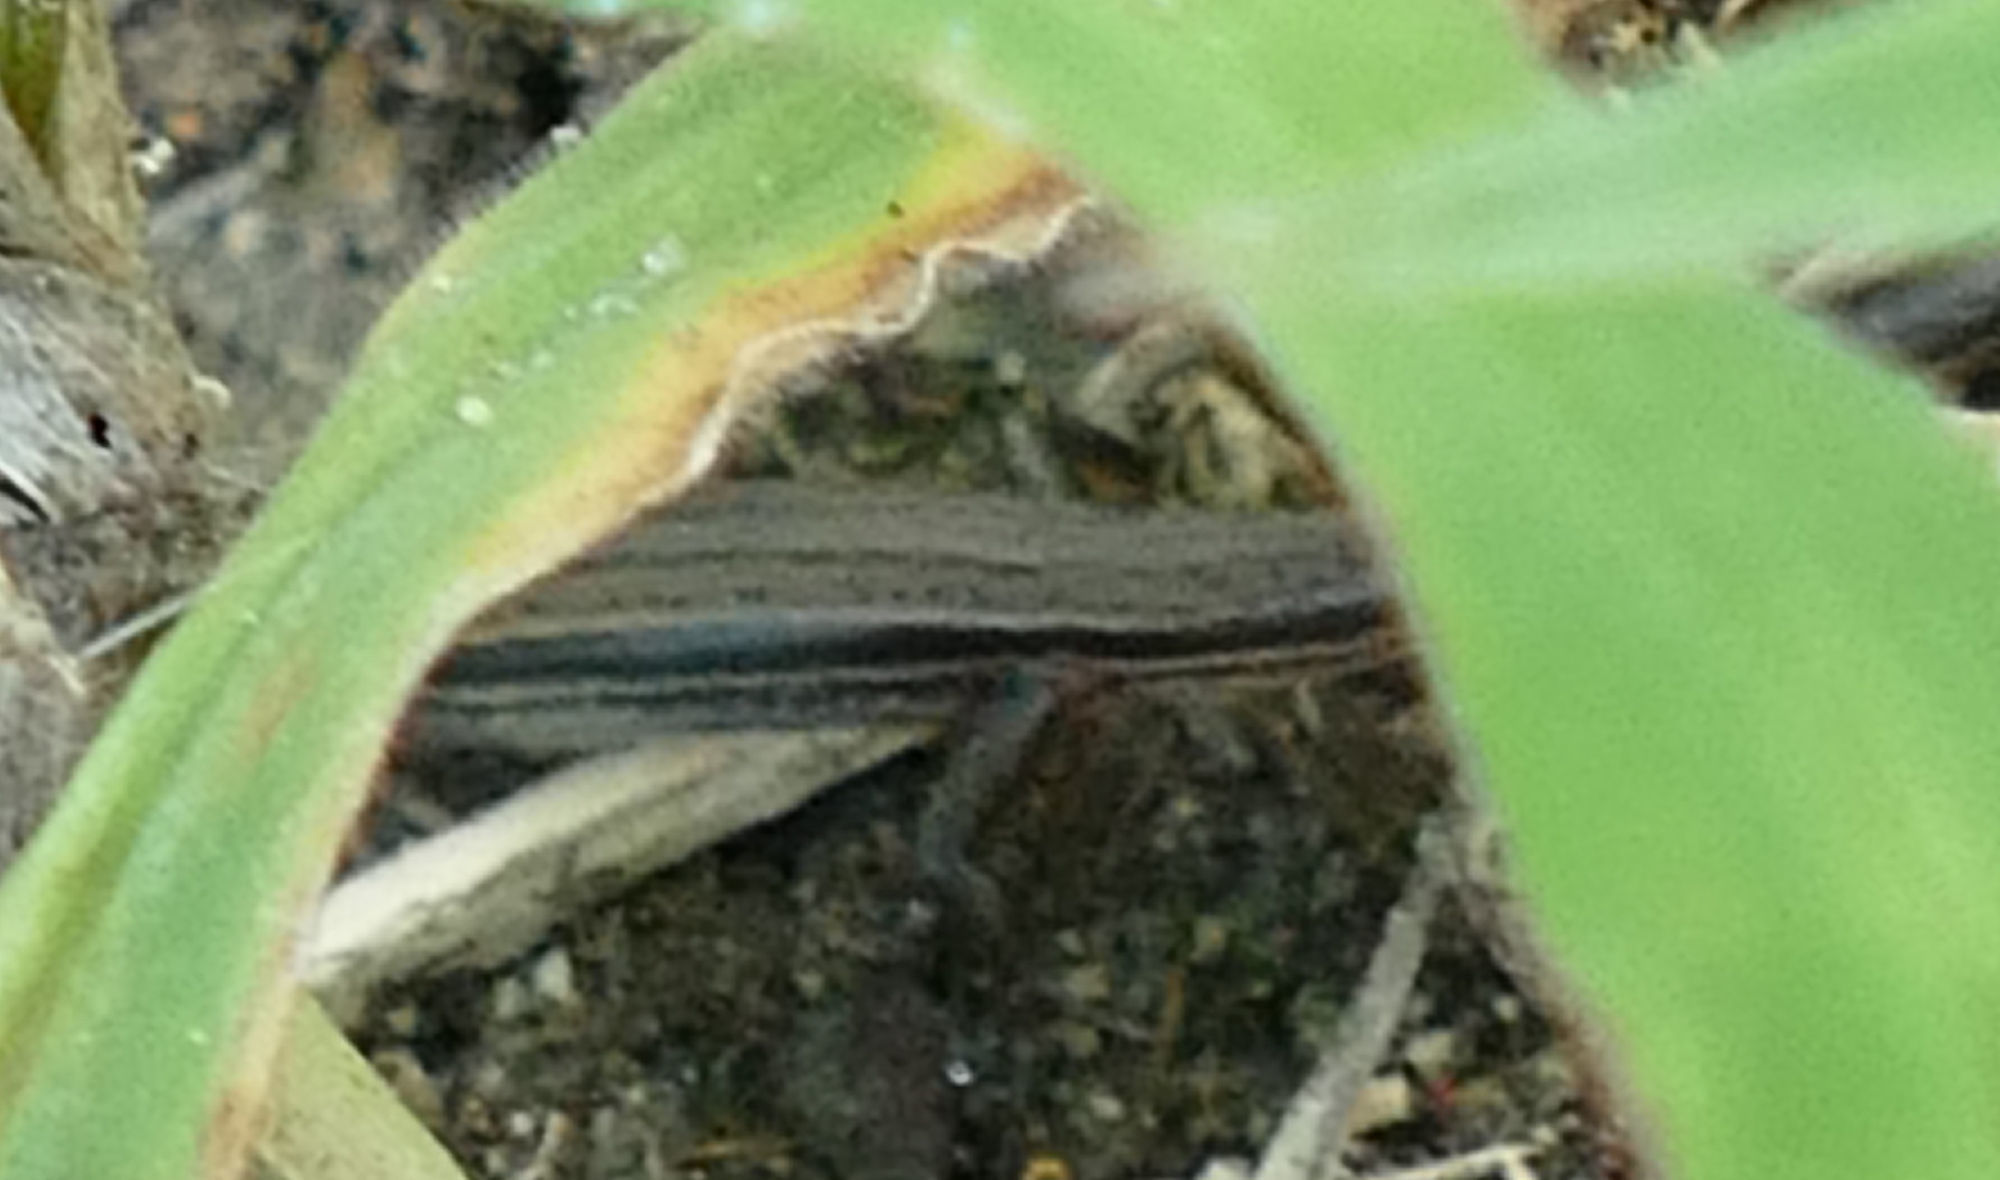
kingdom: Animalia
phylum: Chordata
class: Squamata
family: Scincidae
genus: Scincella
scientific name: Scincella lateralis
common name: Ground skink
